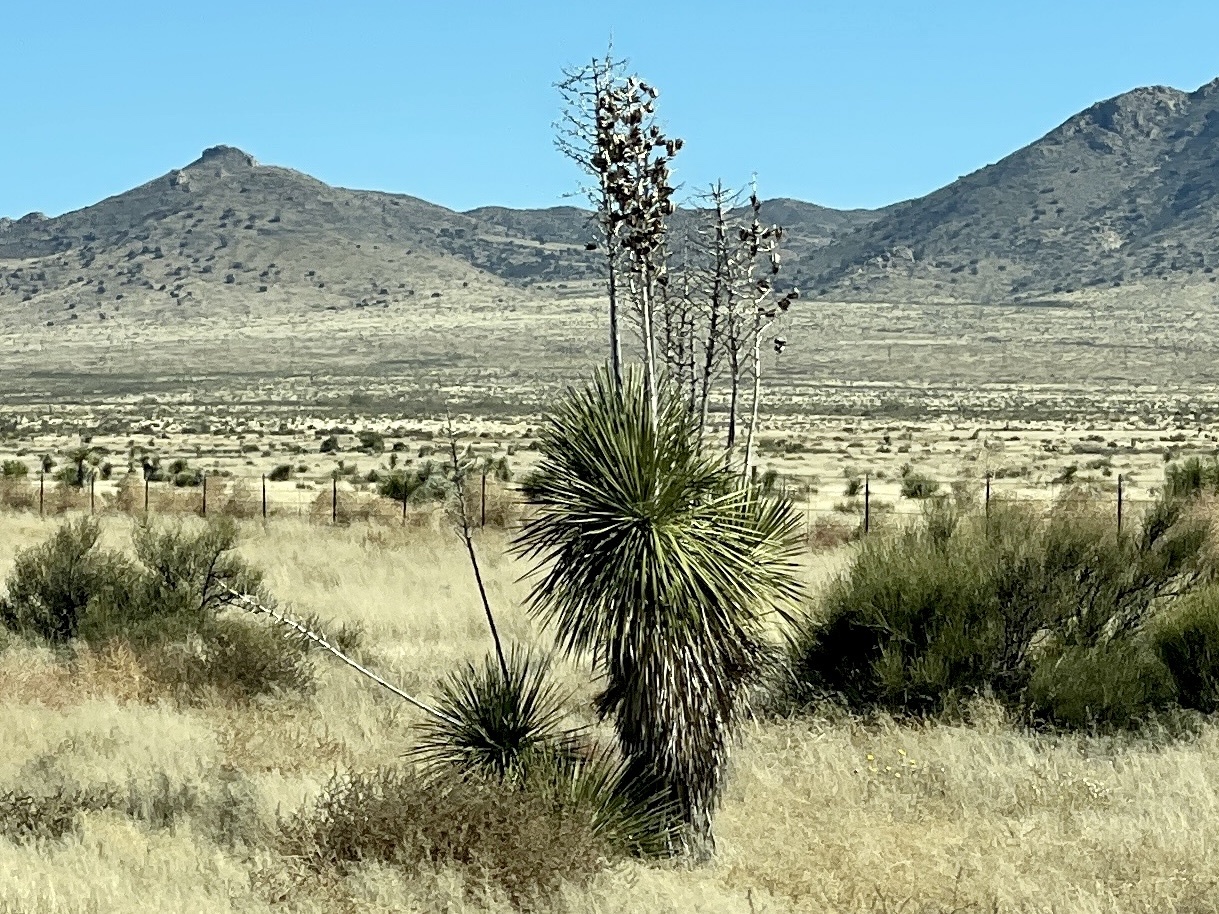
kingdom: Plantae
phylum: Tracheophyta
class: Liliopsida
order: Asparagales
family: Asparagaceae
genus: Yucca
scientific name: Yucca elata
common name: Palmella
